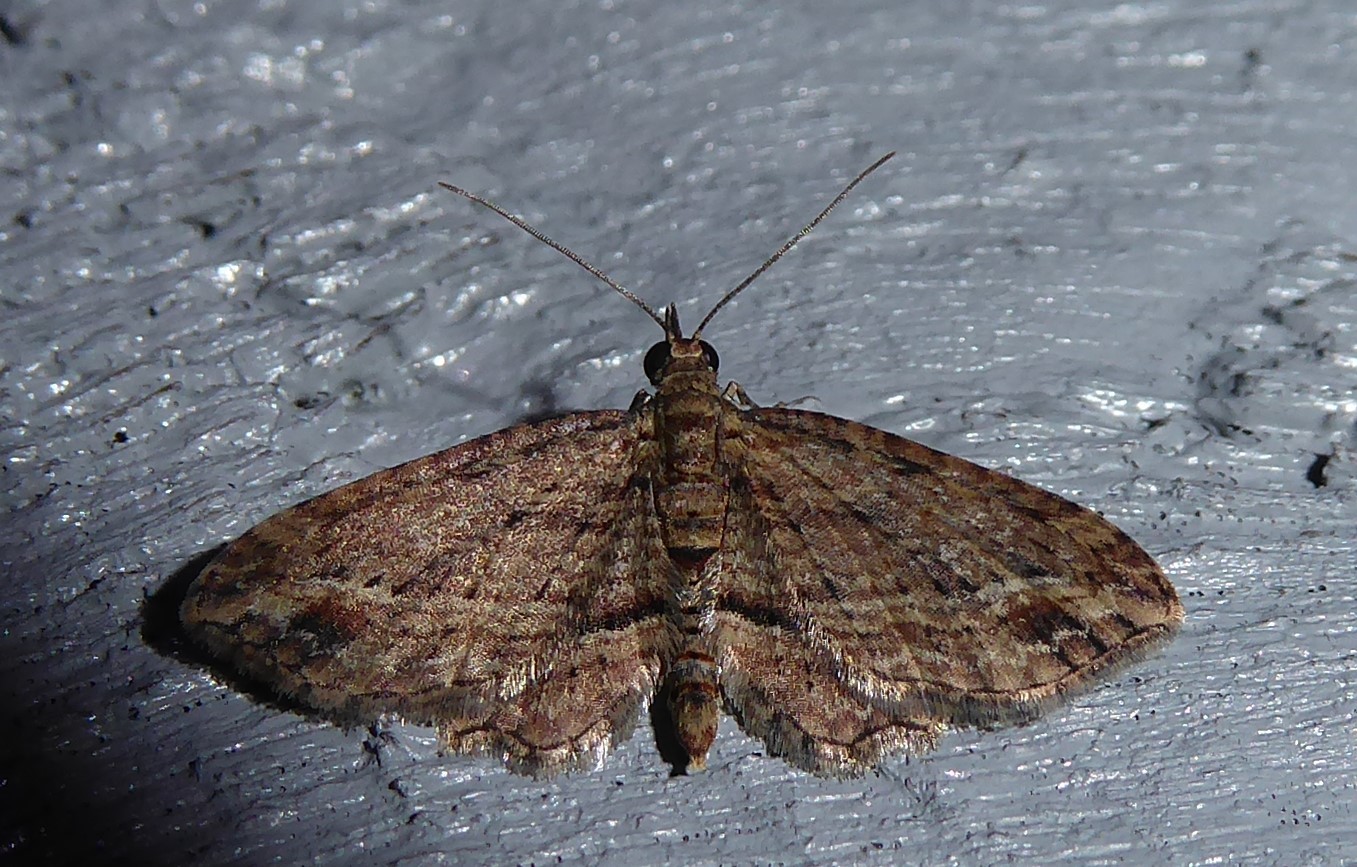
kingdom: Animalia
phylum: Arthropoda
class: Insecta
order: Lepidoptera
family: Geometridae
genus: Chloroclystis
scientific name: Chloroclystis filata
